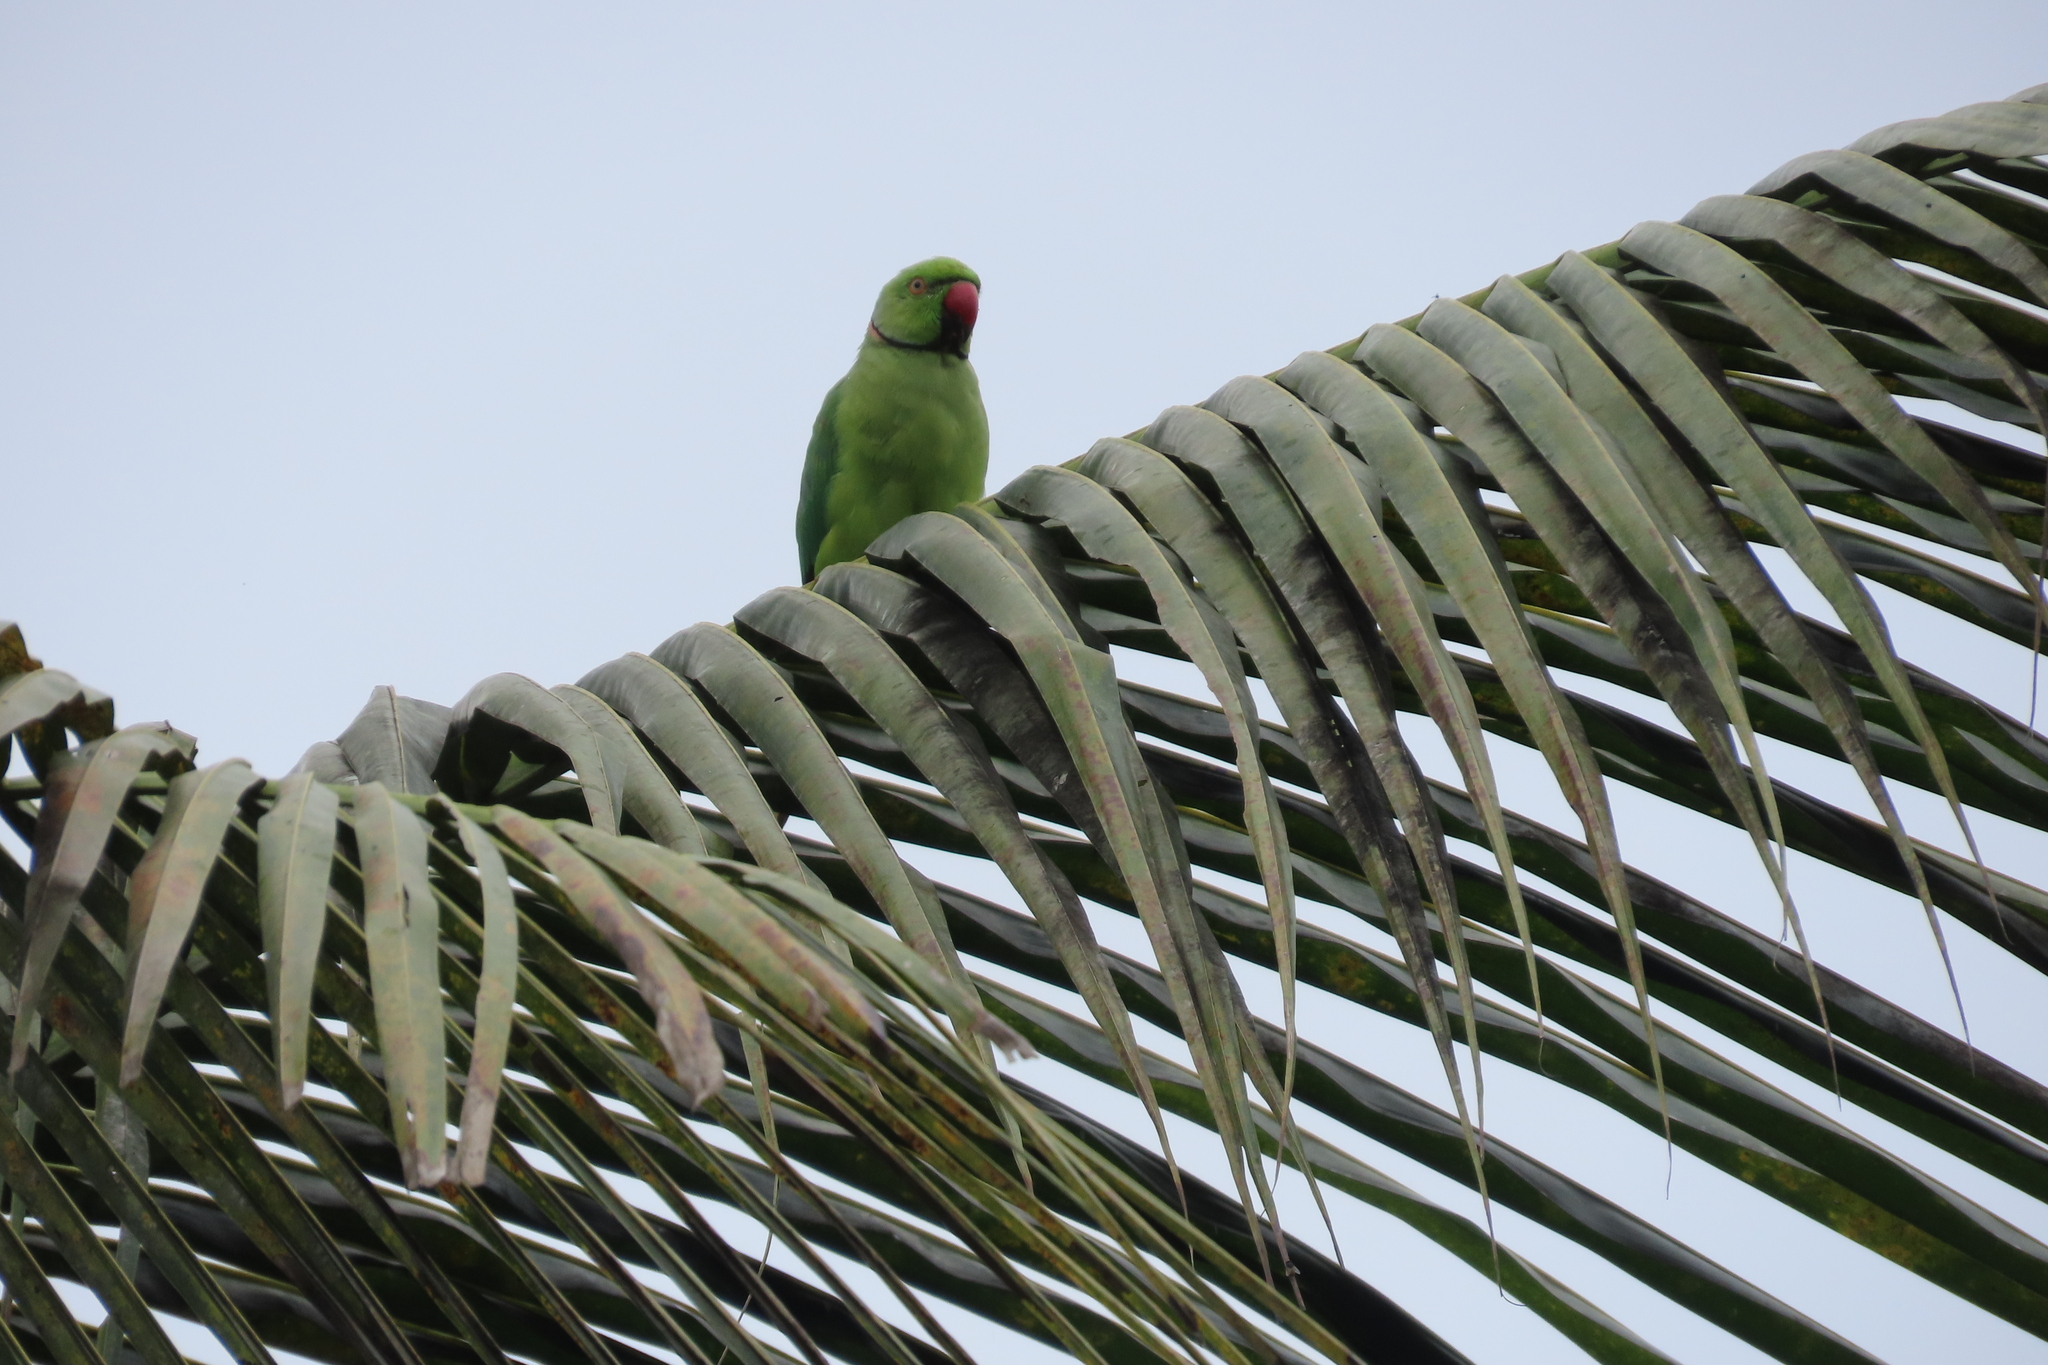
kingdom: Animalia
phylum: Chordata
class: Aves
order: Psittaciformes
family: Psittacidae
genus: Psittacula
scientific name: Psittacula krameri
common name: Rose-ringed parakeet
